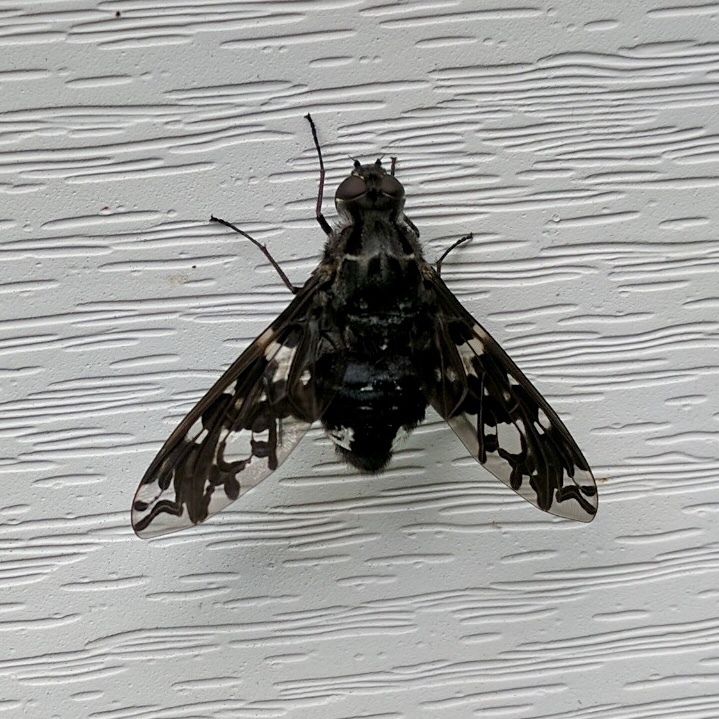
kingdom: Animalia
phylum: Arthropoda
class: Insecta
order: Diptera
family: Bombyliidae
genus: Xenox
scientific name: Xenox tigrinus
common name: Tiger bee fly
